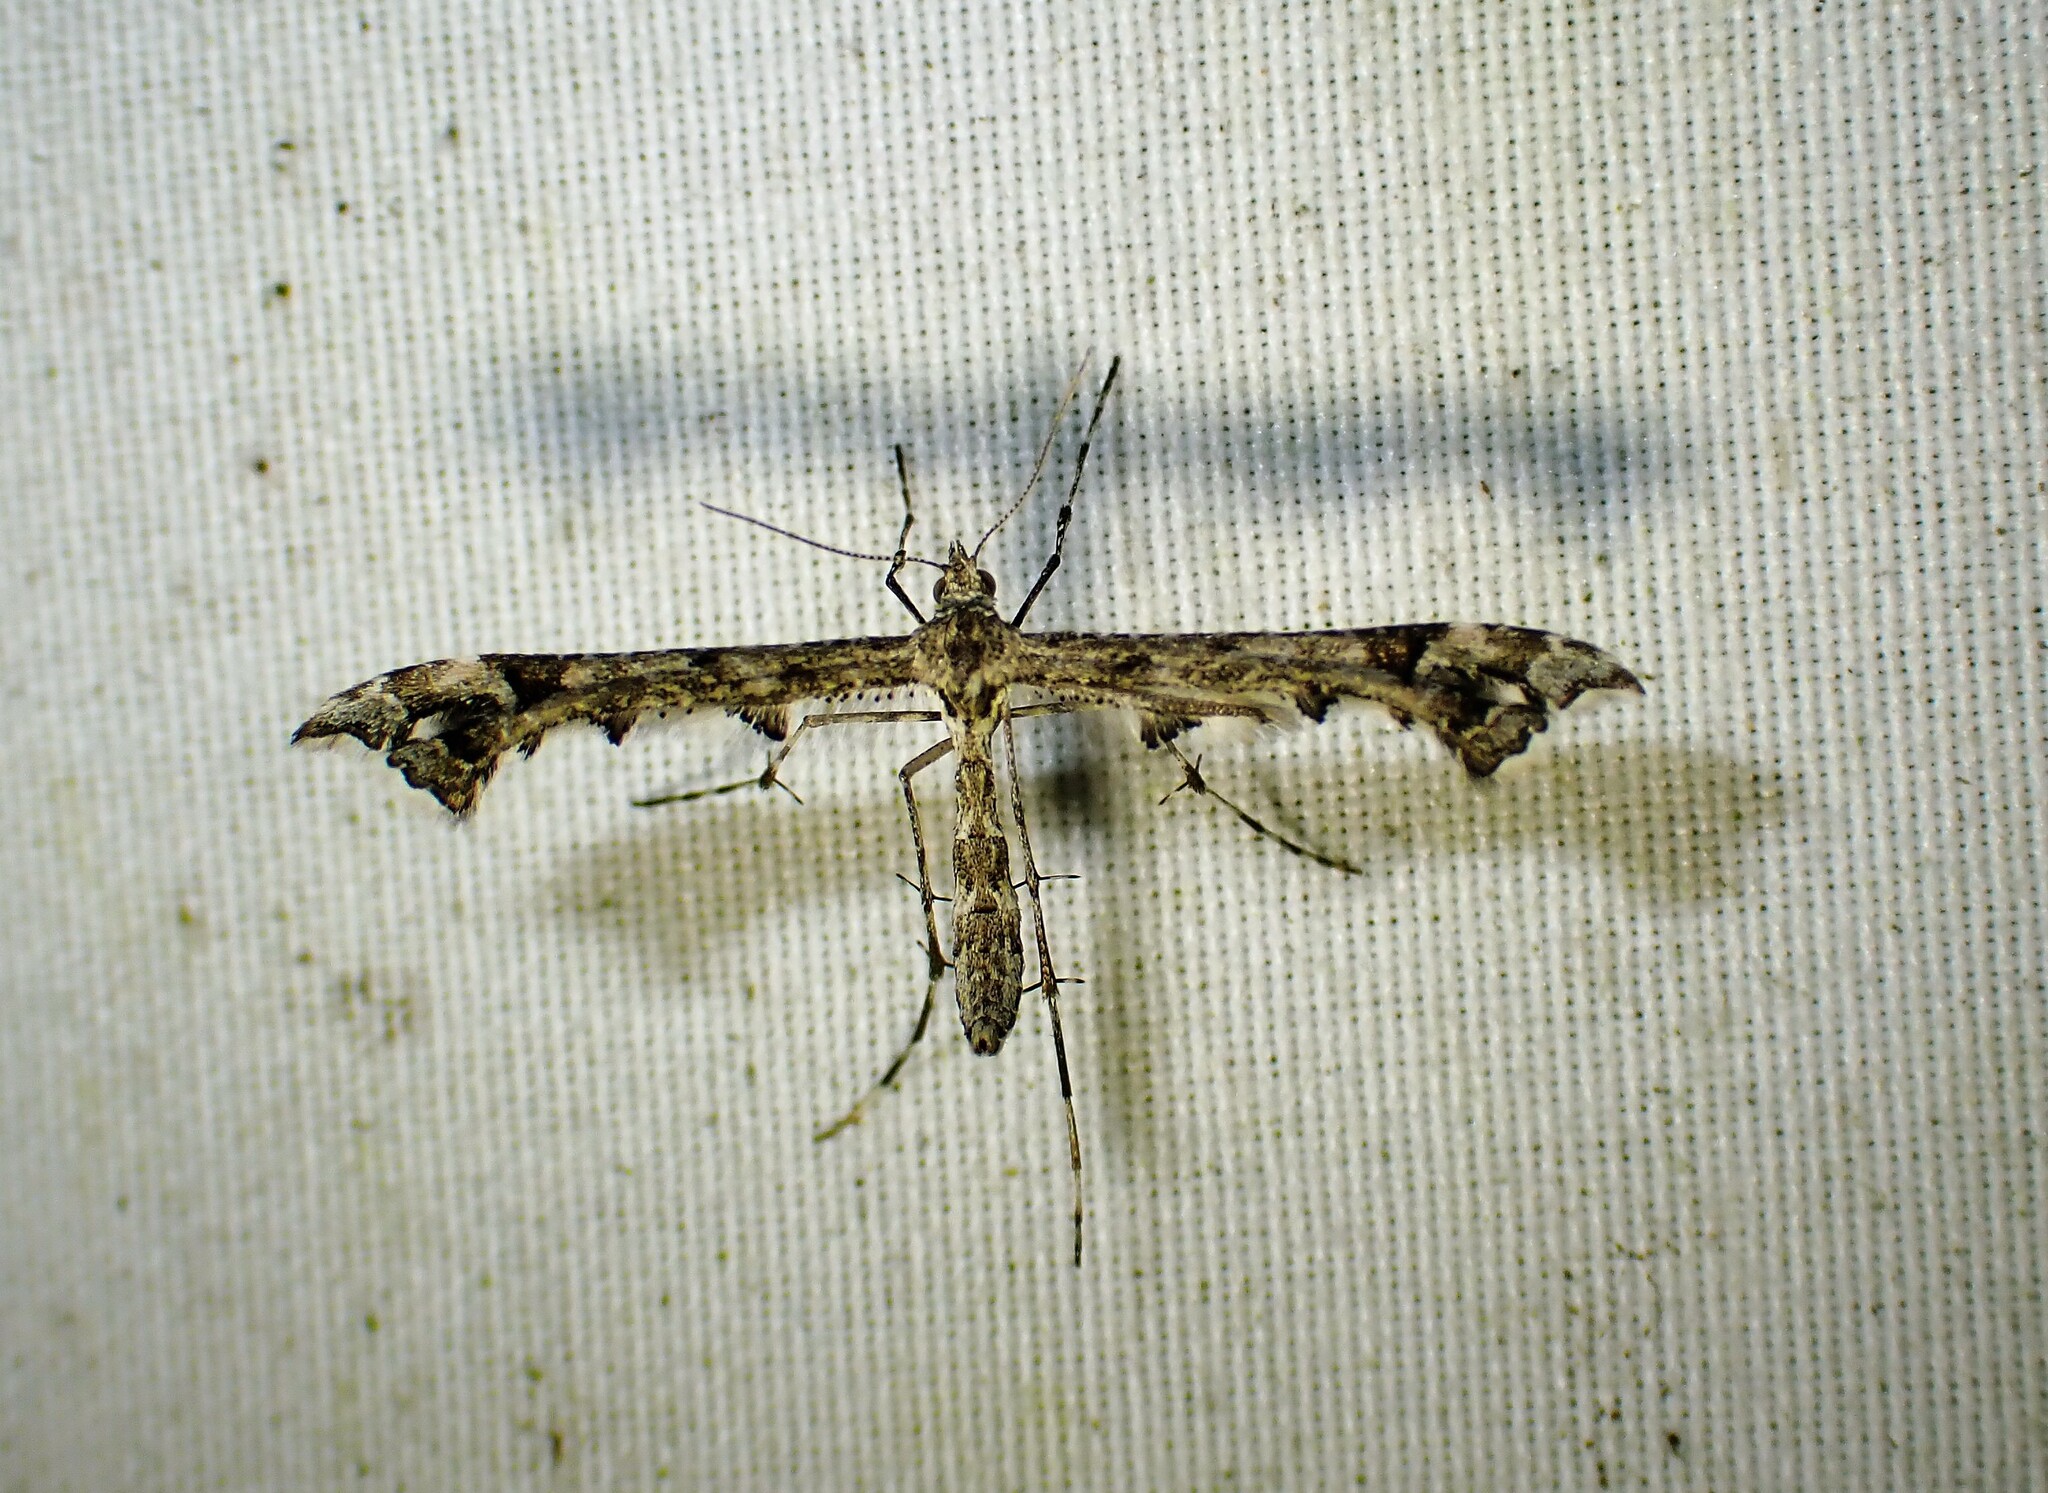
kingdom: Animalia
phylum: Arthropoda
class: Insecta
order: Lepidoptera
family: Pterophoridae
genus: Amblyptilia
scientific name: Amblyptilia pica
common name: Geranium plume moth
